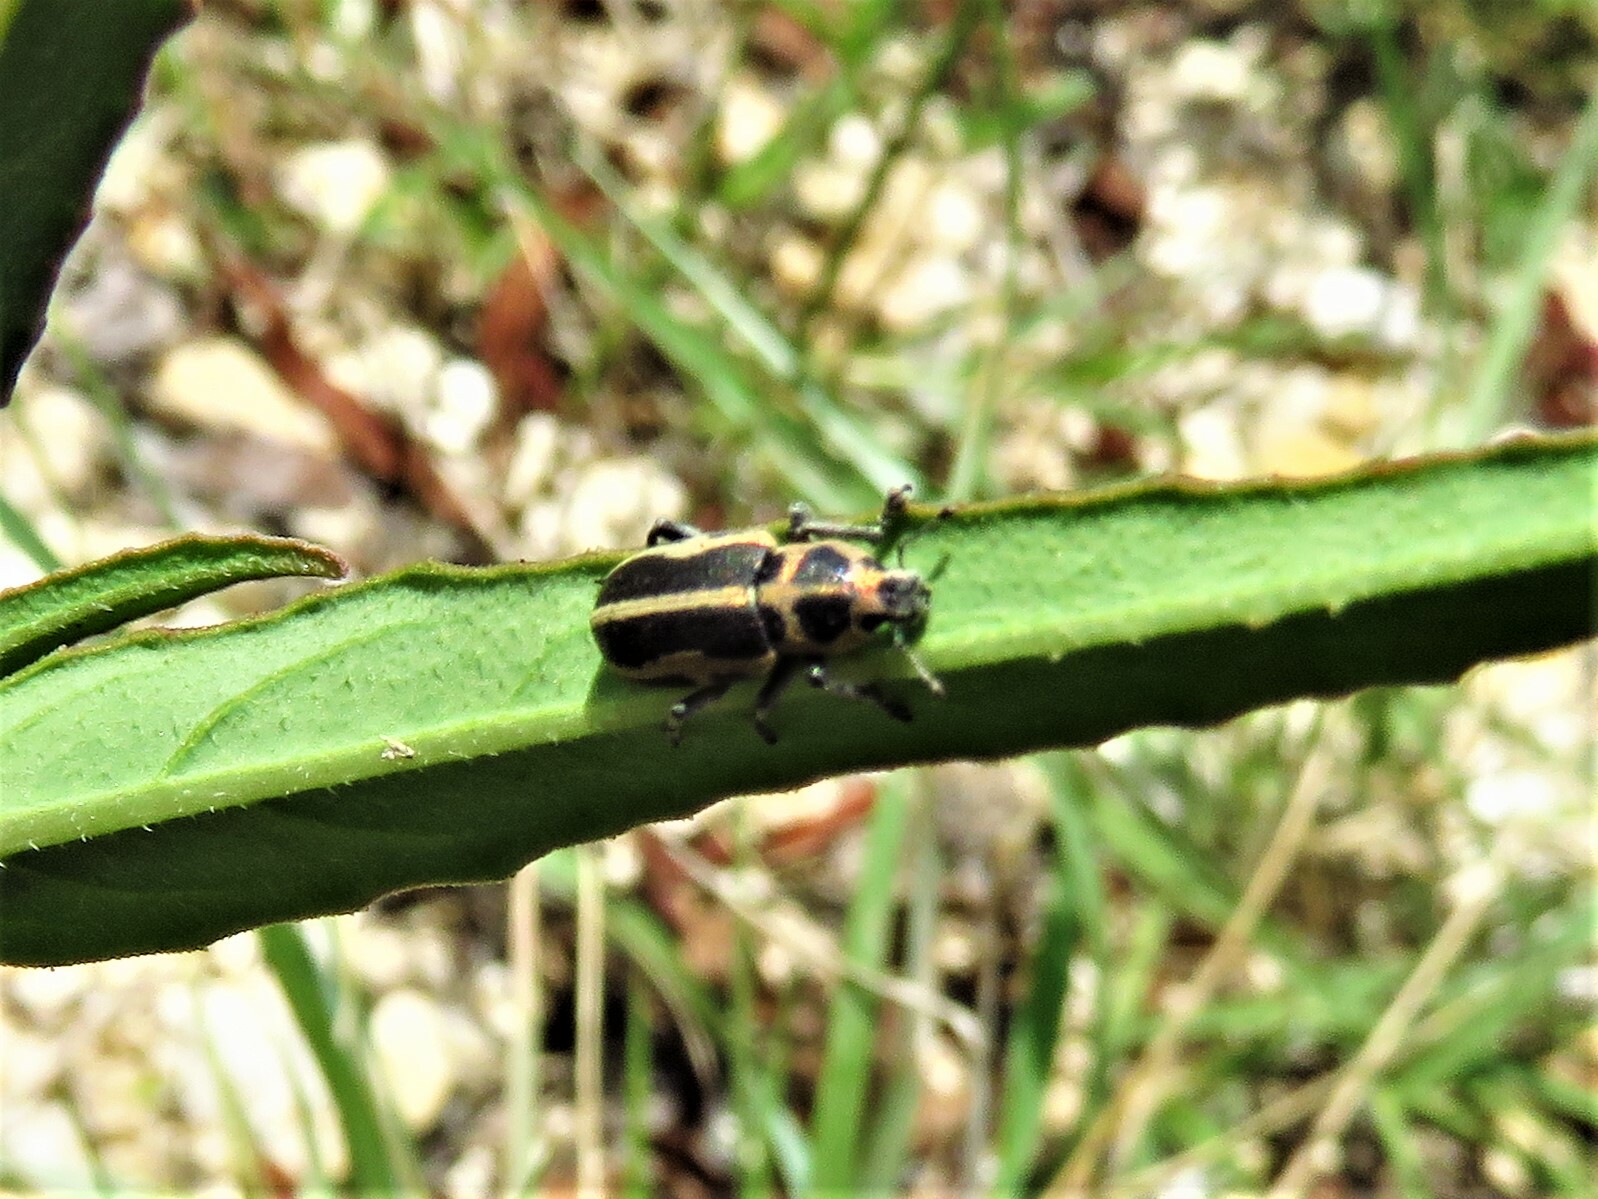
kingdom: Animalia
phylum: Arthropoda
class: Insecta
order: Coleoptera
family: Curculionidae
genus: Eudiagogus
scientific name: Eudiagogus pulcher
